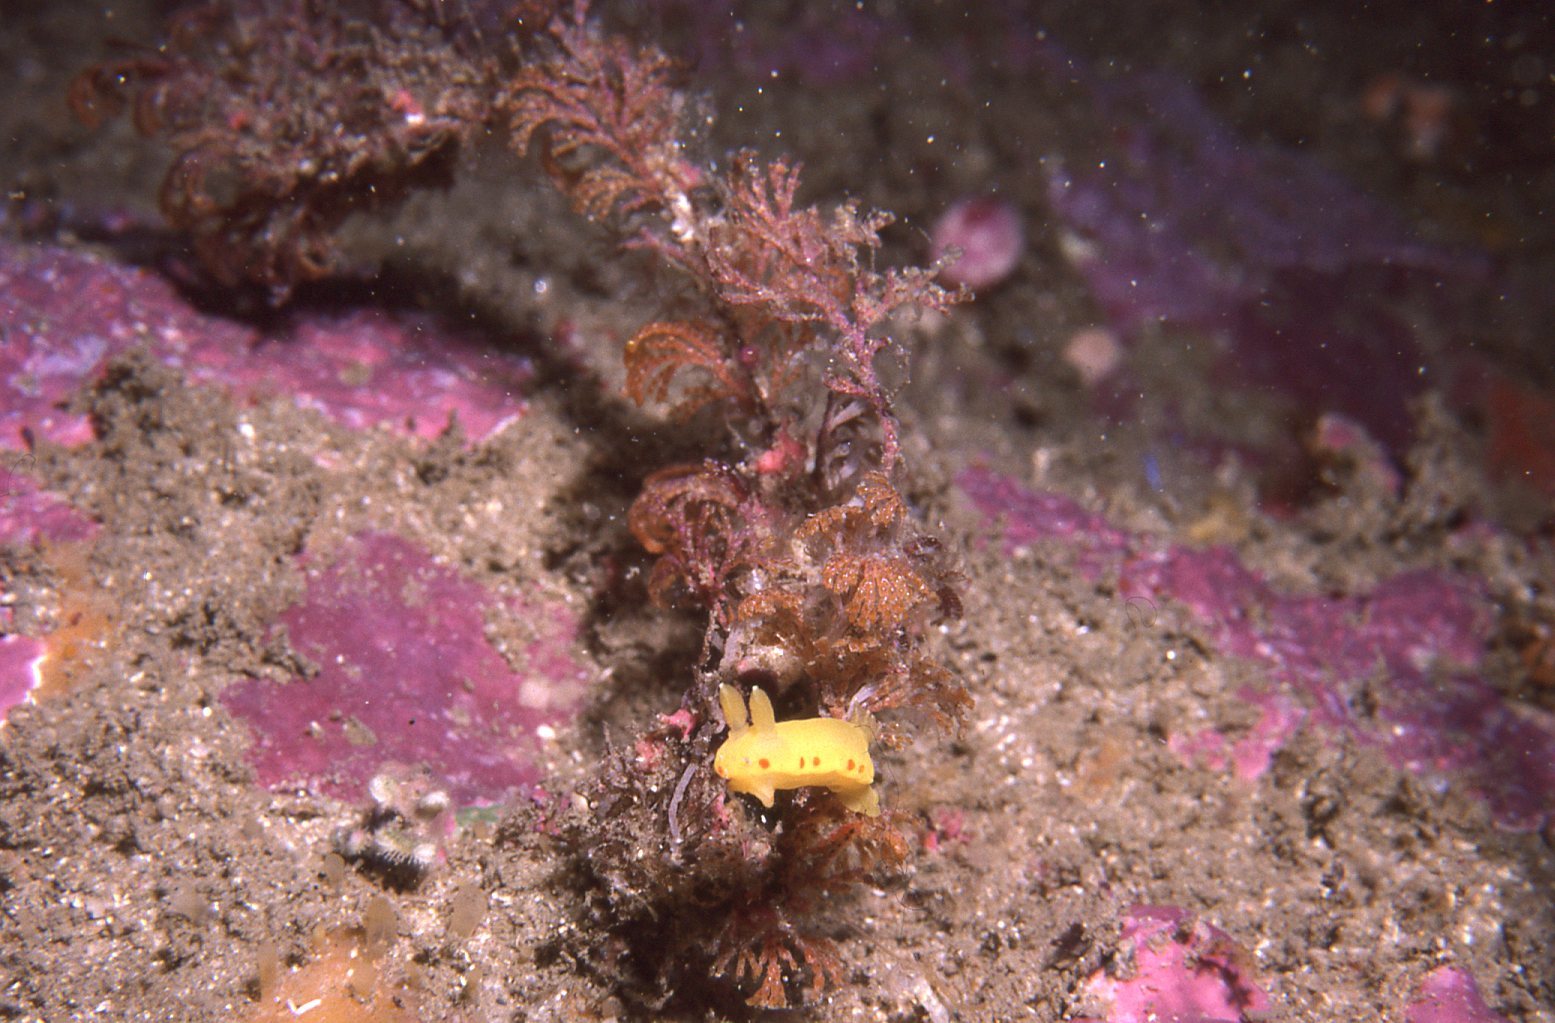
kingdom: Animalia
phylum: Mollusca
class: Gastropoda
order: Nudibranchia
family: Chromodorididae
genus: Diversidoris
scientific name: Diversidoris sulphurea
